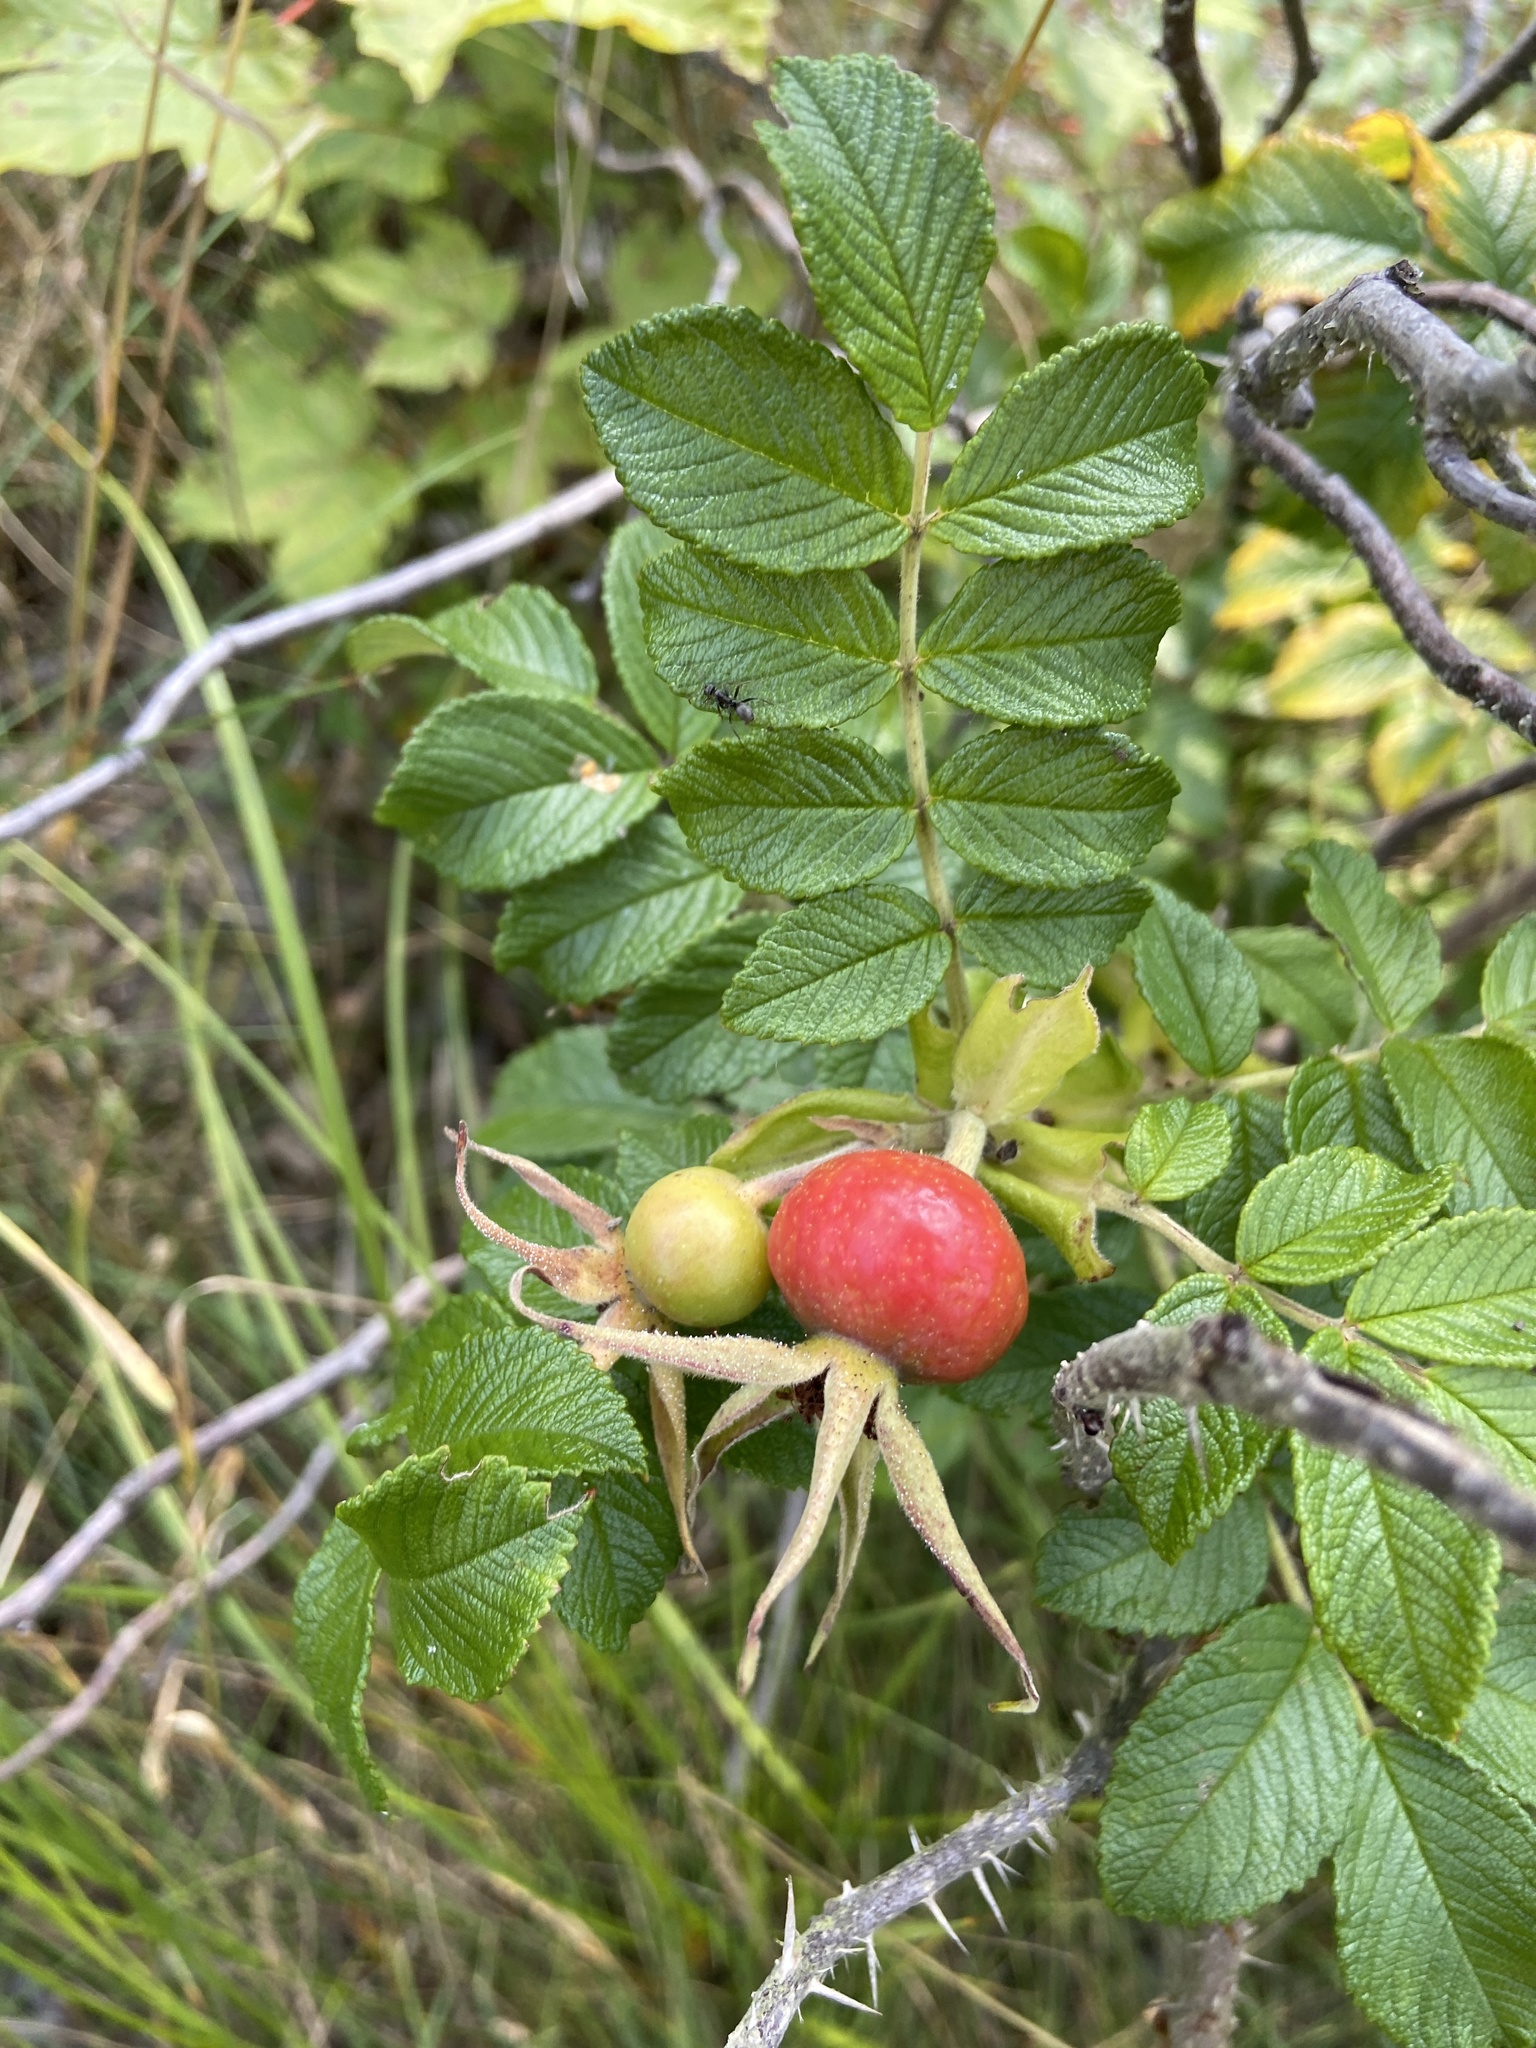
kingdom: Plantae
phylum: Tracheophyta
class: Magnoliopsida
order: Rosales
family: Rosaceae
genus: Rosa
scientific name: Rosa rugosa
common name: Japanese rose
